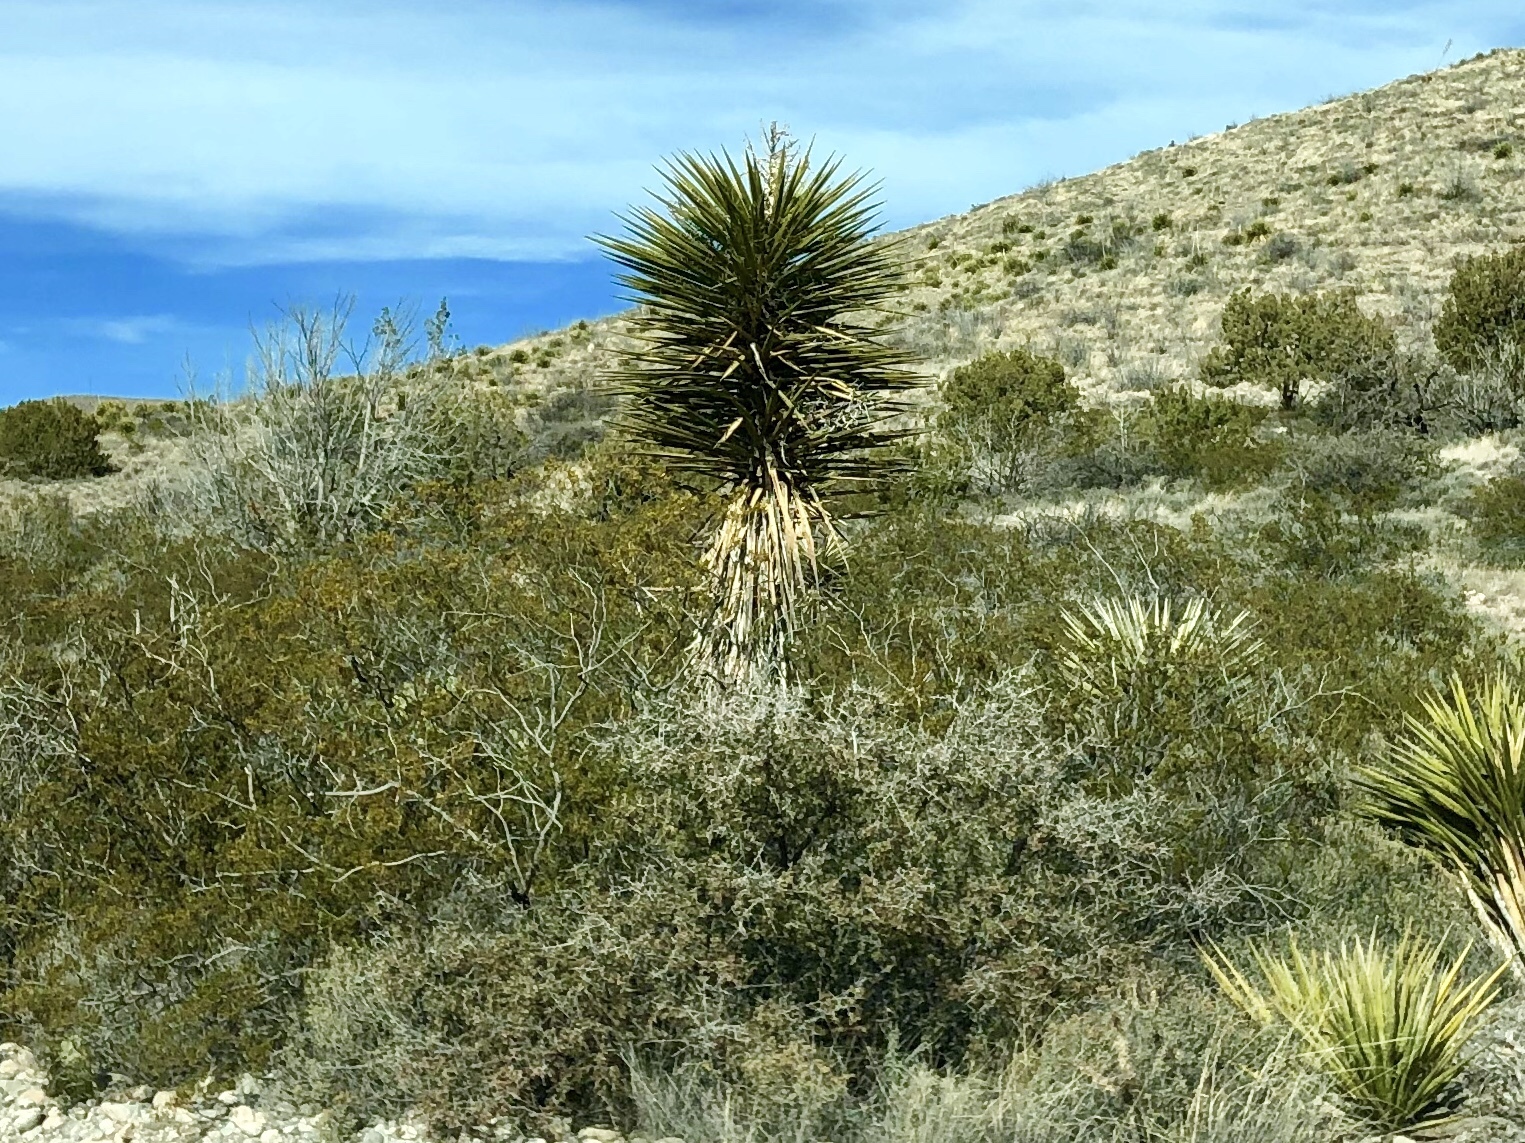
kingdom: Plantae
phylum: Tracheophyta
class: Liliopsida
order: Asparagales
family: Asparagaceae
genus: Yucca
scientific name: Yucca treculiana
